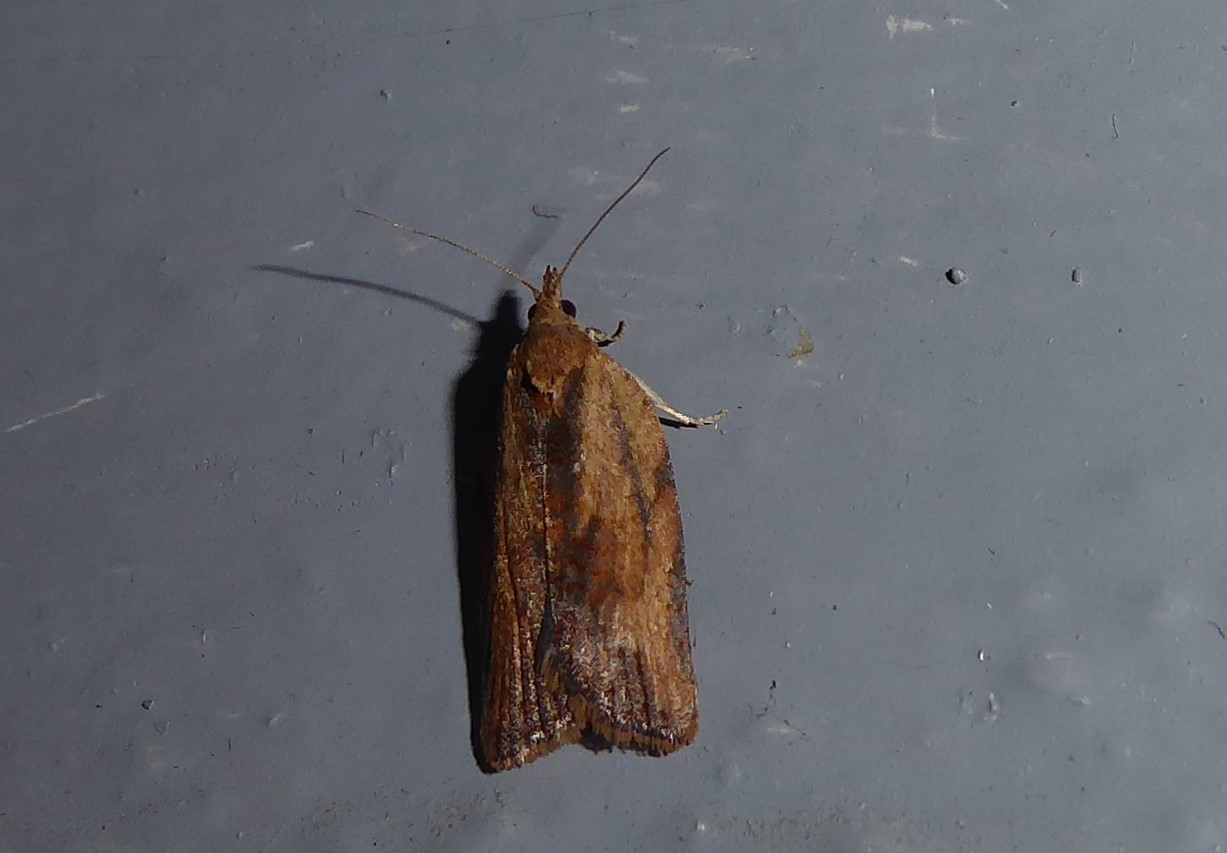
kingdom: Animalia
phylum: Arthropoda
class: Insecta
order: Lepidoptera
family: Tortricidae
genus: Epiphyas
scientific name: Epiphyas postvittana
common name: Light brown apple moth
